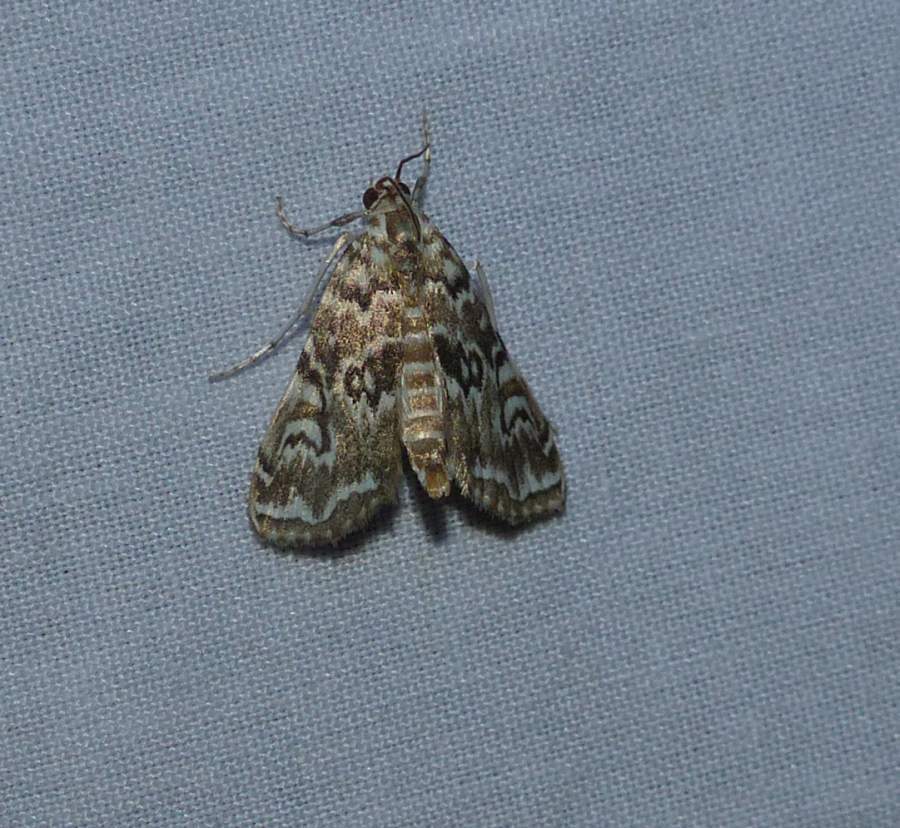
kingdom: Animalia
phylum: Arthropoda
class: Insecta
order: Lepidoptera
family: Crambidae
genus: Elophila
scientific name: Elophila gyralis
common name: Waterlily borer moth
